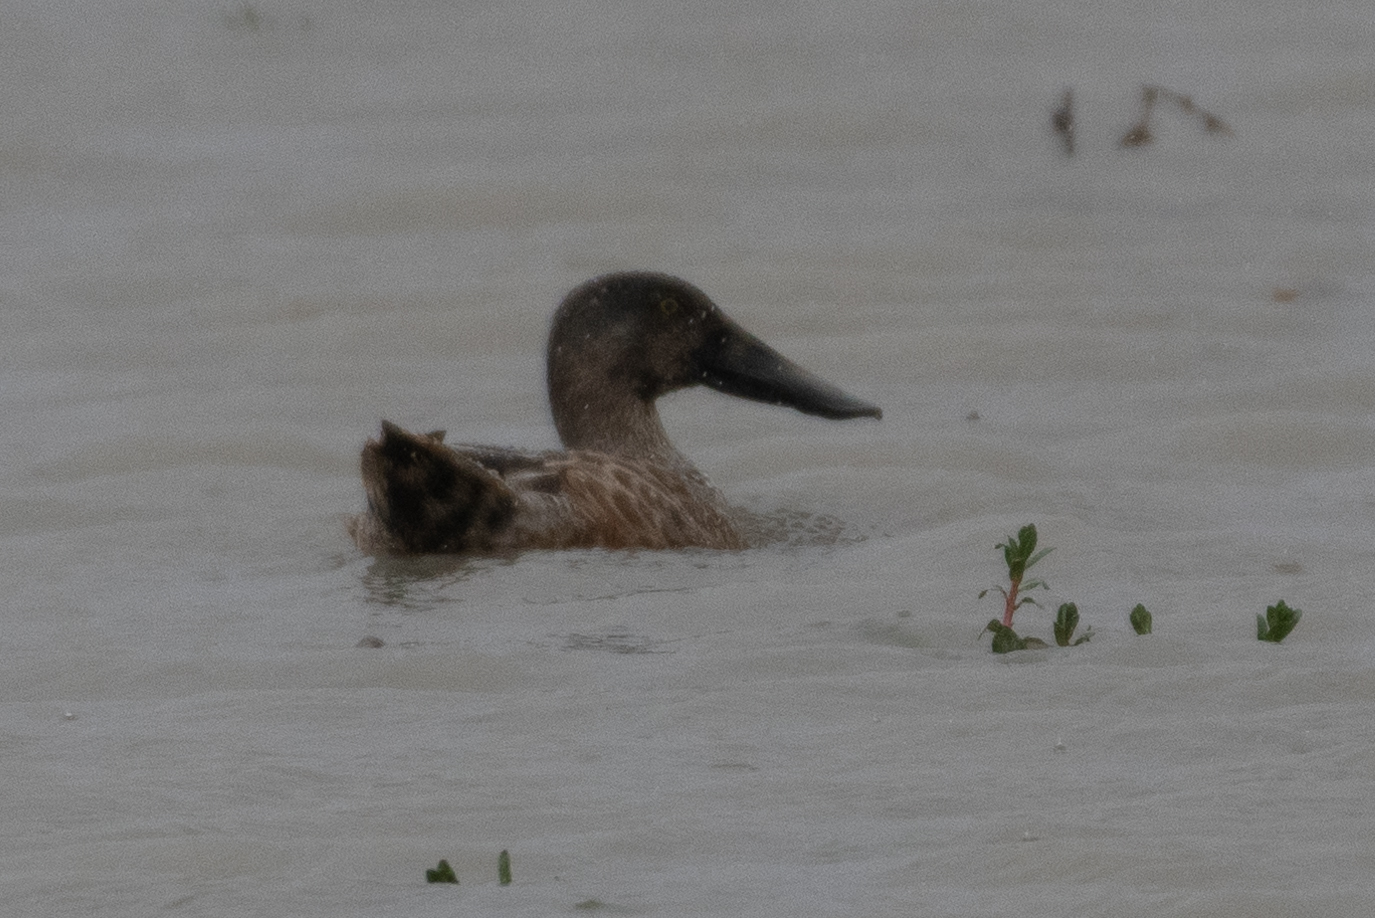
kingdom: Animalia
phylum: Chordata
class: Aves
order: Anseriformes
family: Anatidae
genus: Spatula
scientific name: Spatula clypeata
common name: Northern shoveler
